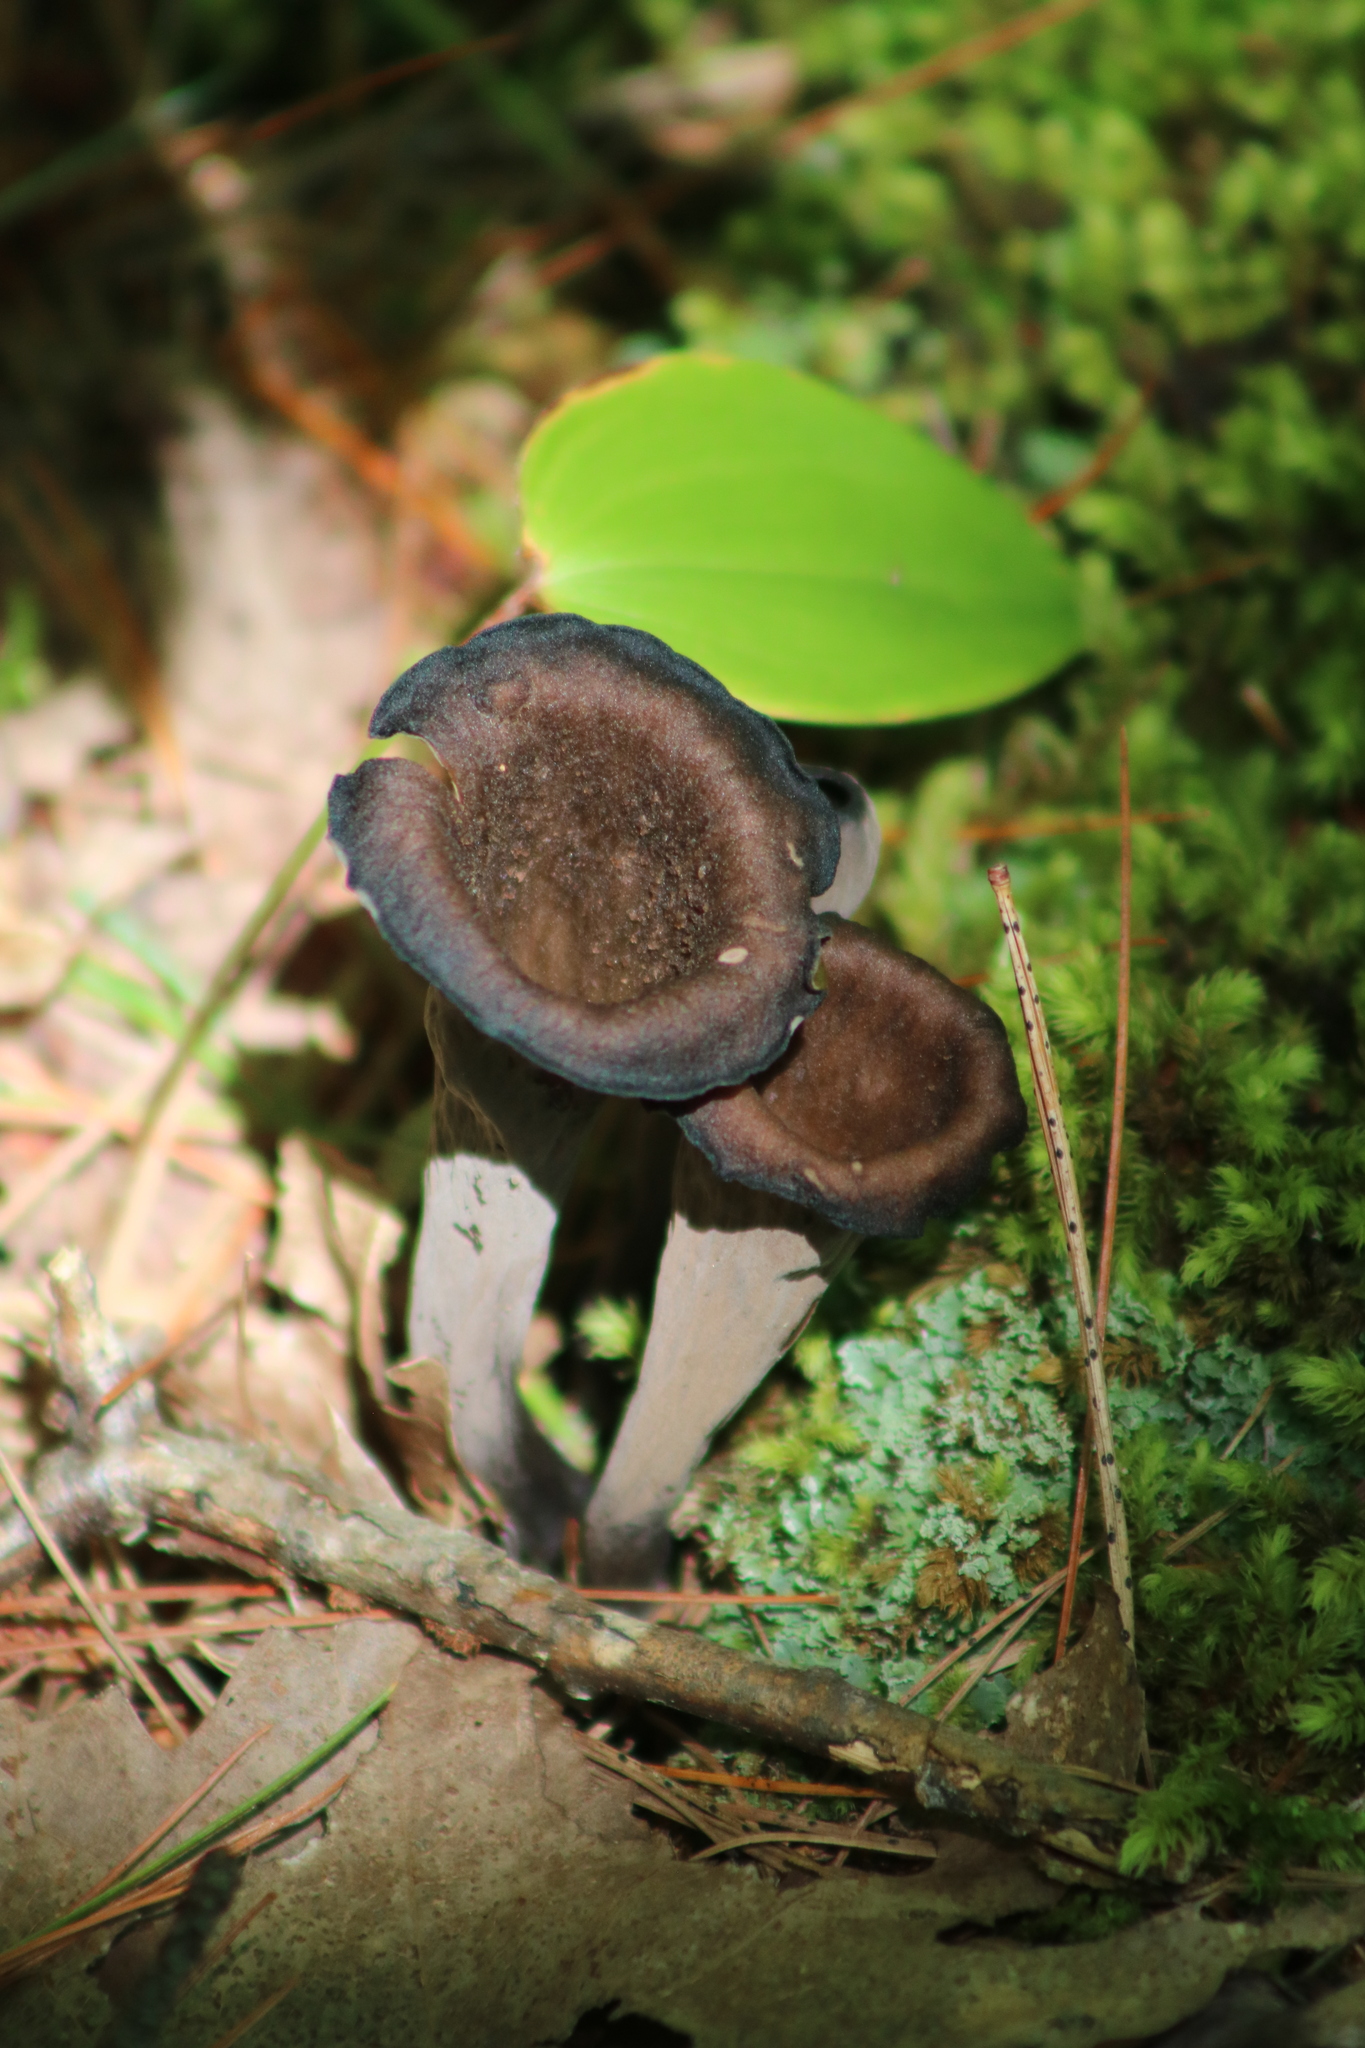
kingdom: Fungi
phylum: Basidiomycota
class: Agaricomycetes
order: Cantharellales
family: Hydnaceae
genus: Craterellus
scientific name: Craterellus cornucopioides
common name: Horn of plenty
